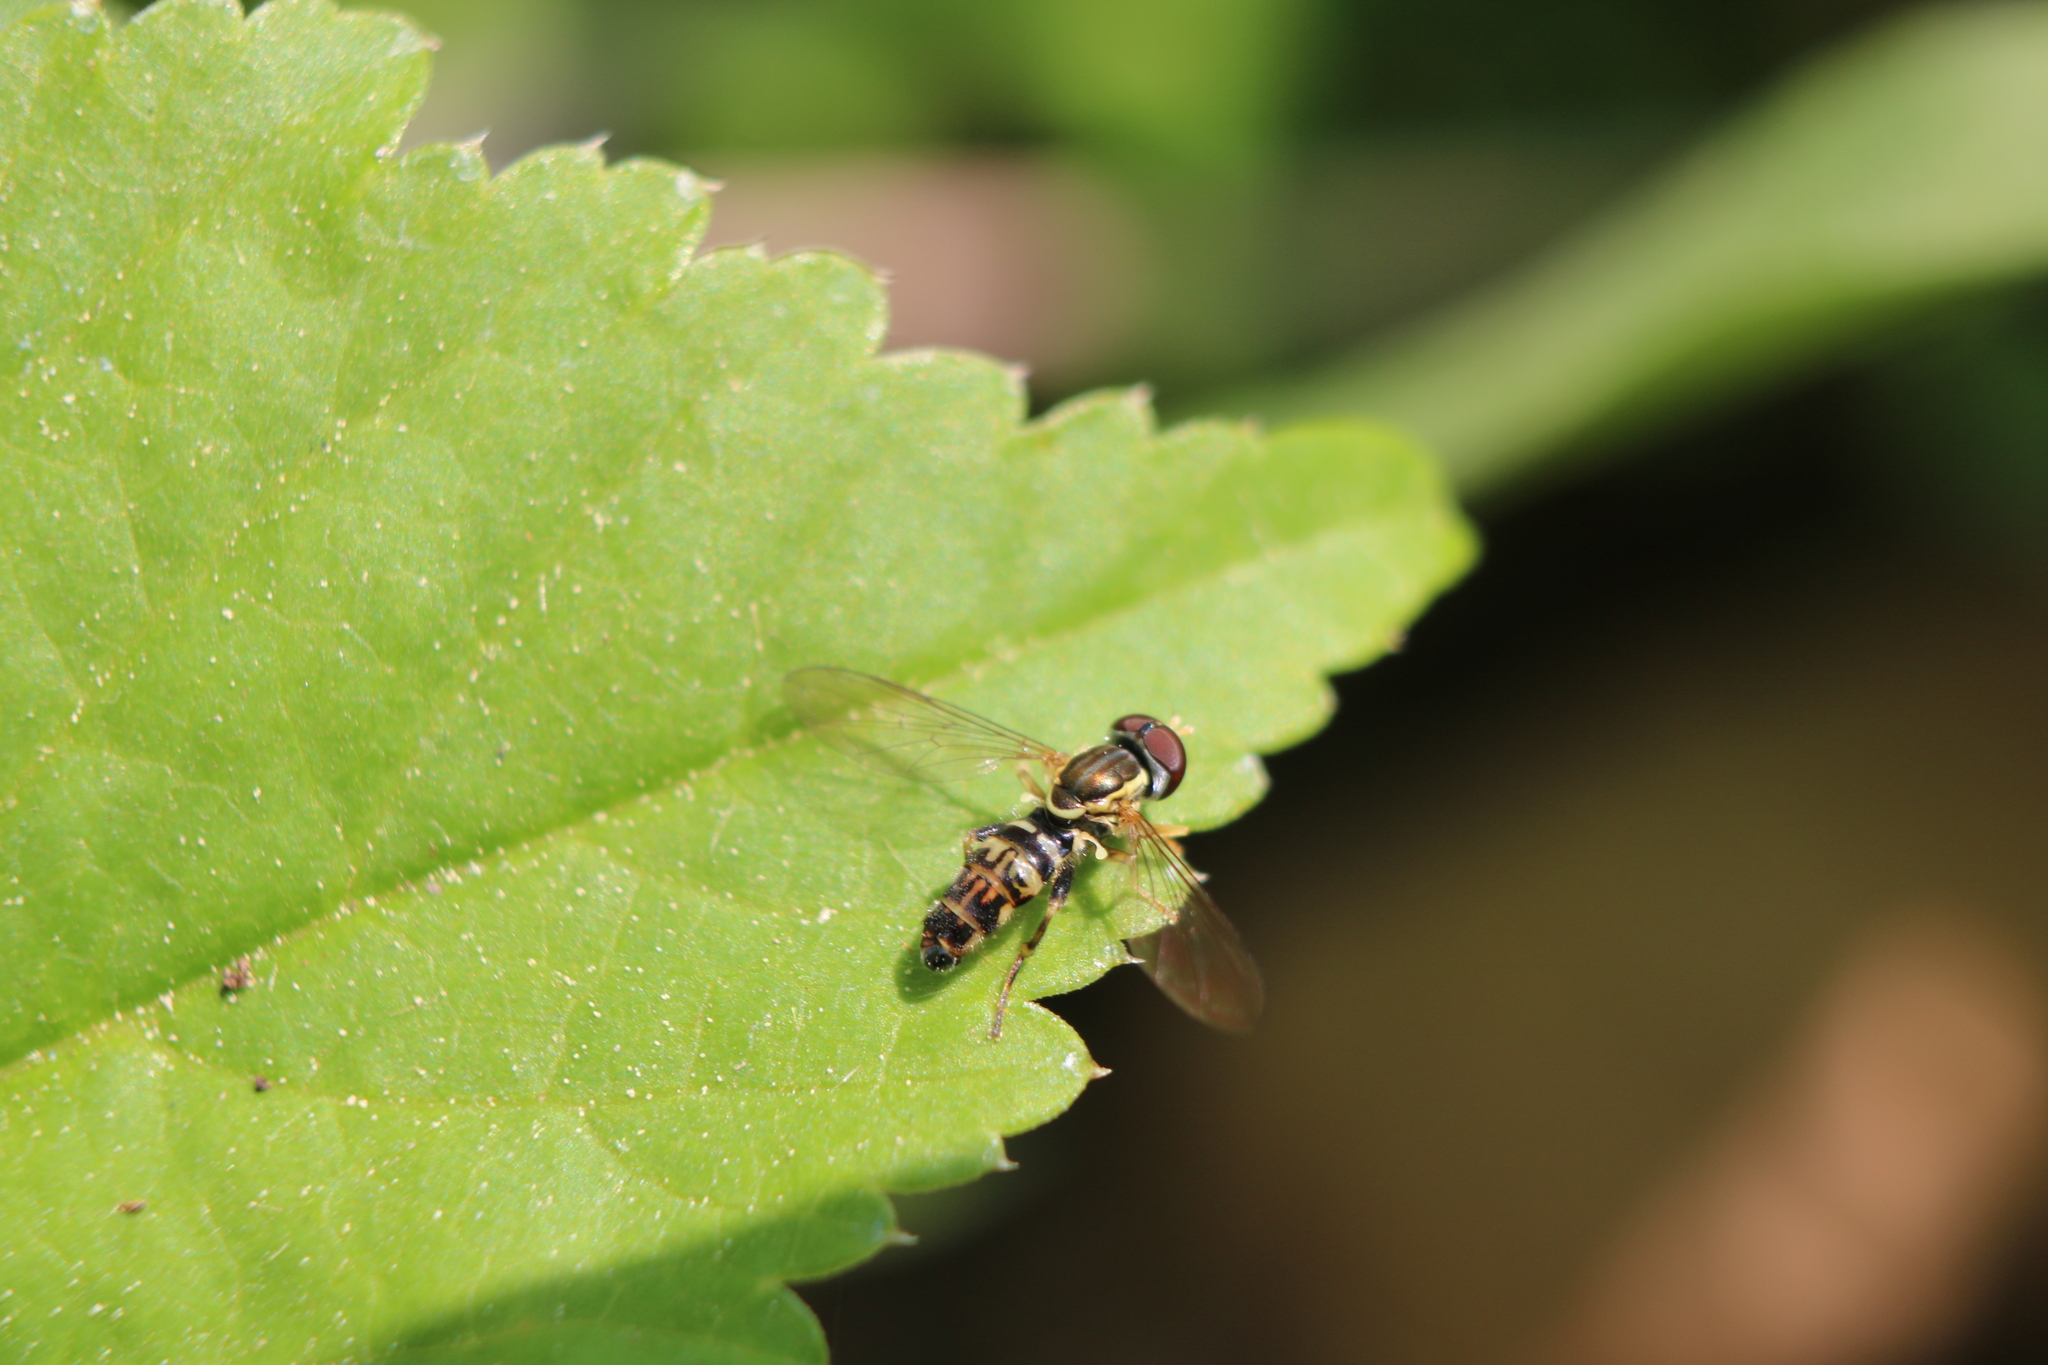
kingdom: Animalia
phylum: Arthropoda
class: Insecta
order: Diptera
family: Syrphidae
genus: Toxomerus
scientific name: Toxomerus geminatus
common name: Eastern calligrapher
